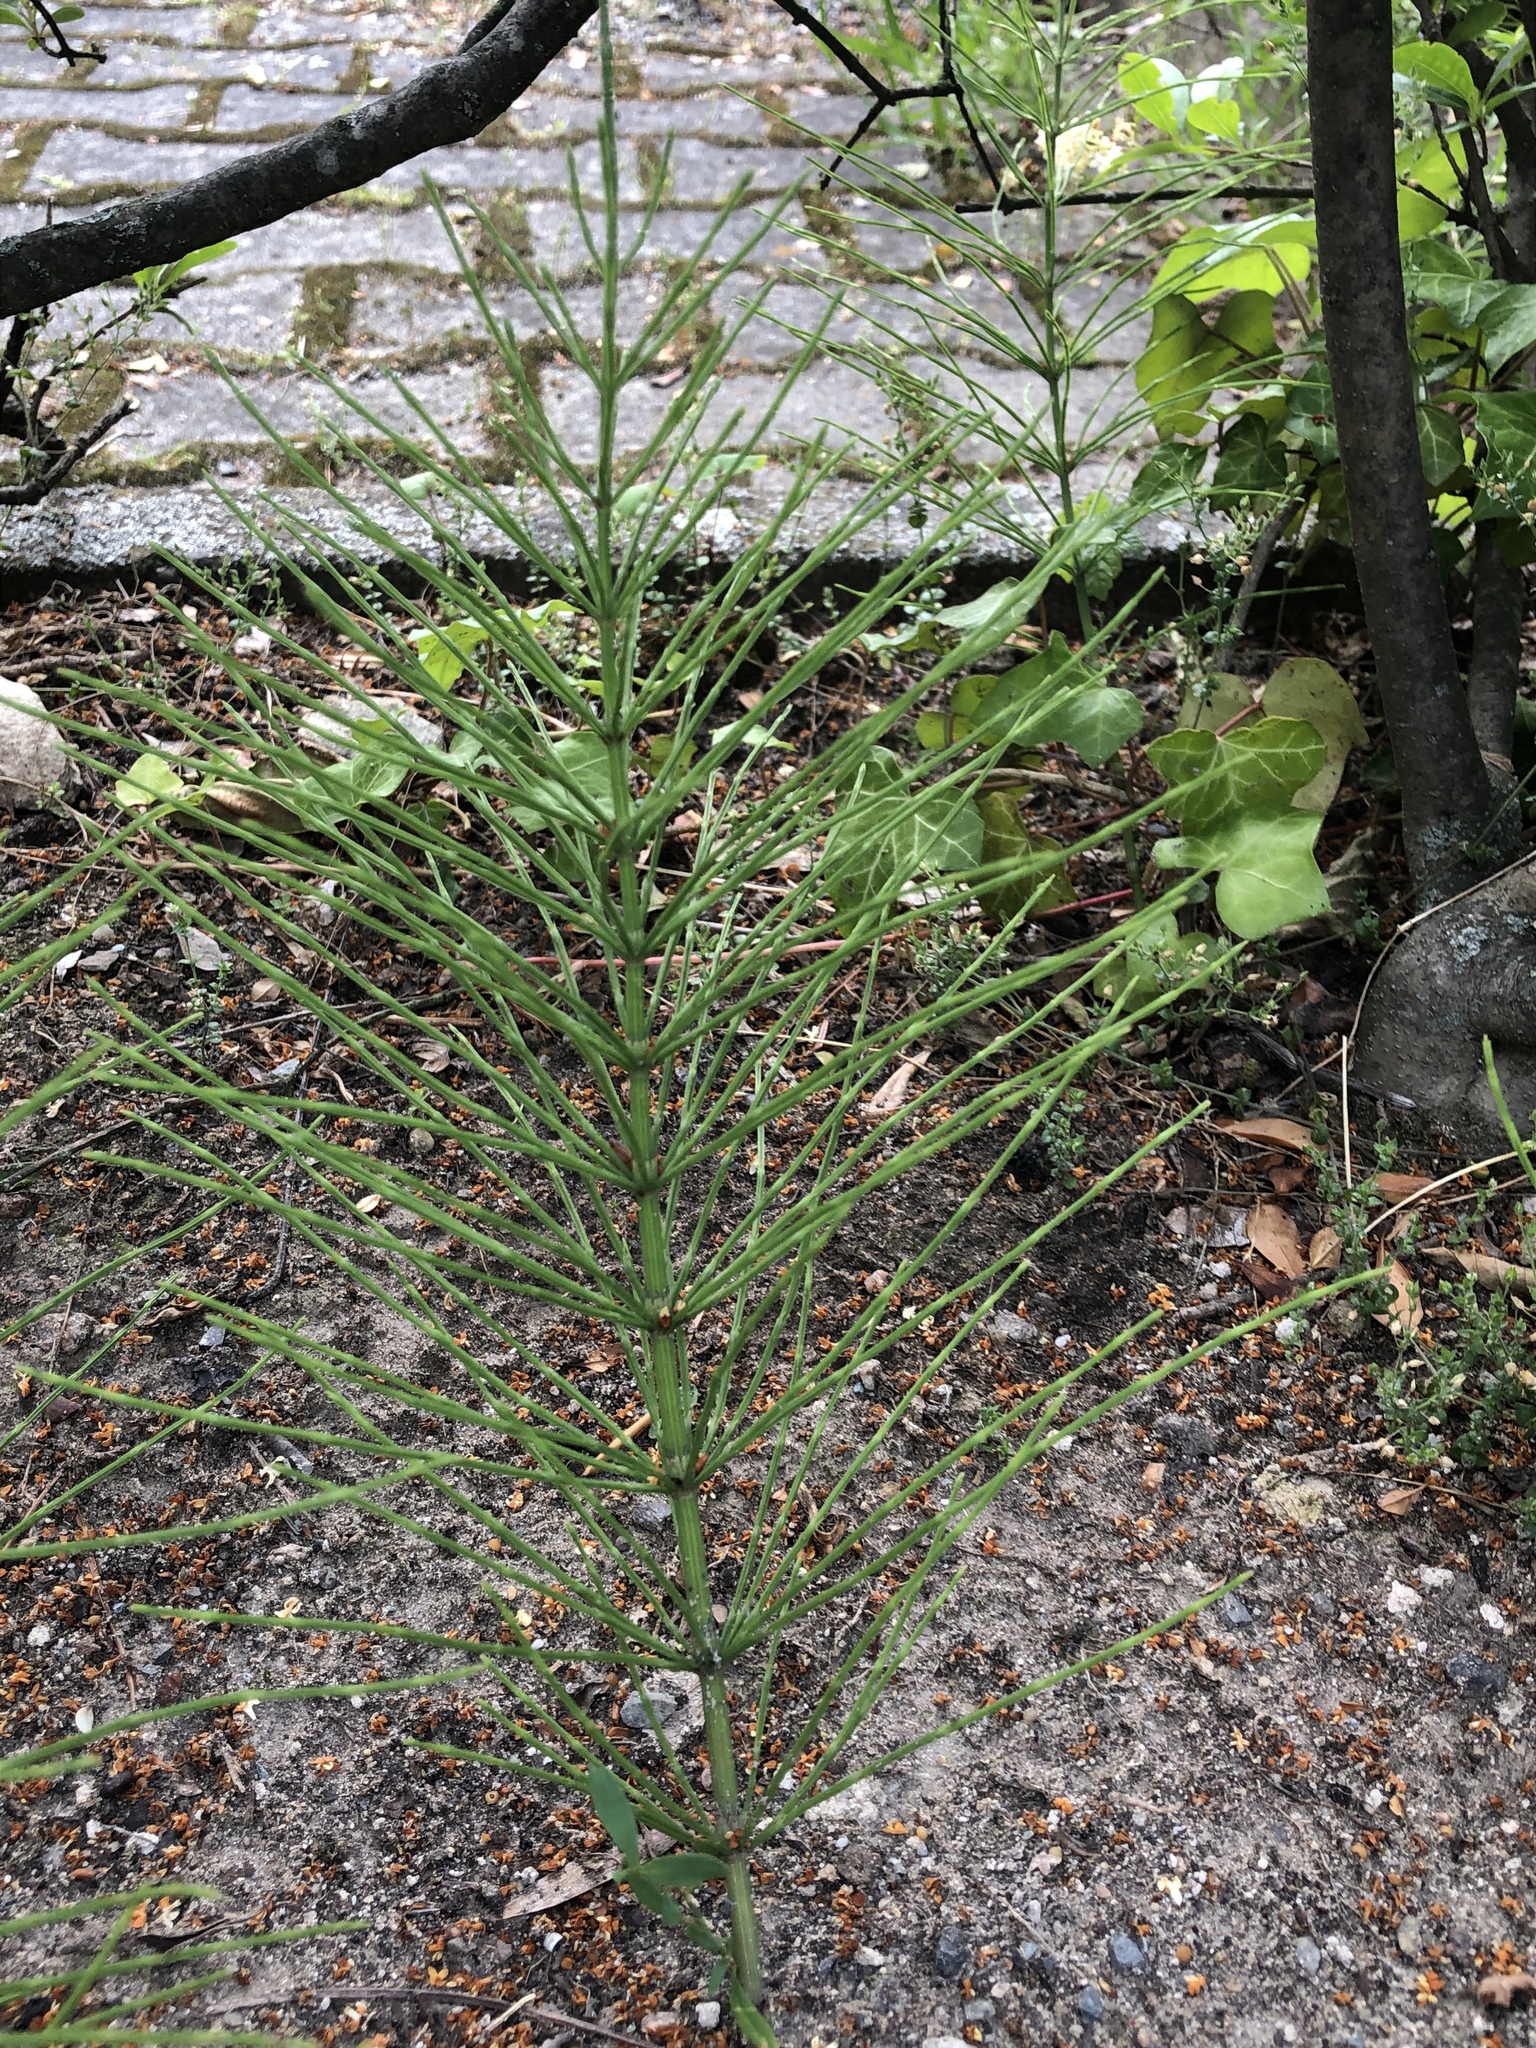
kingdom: Plantae
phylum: Tracheophyta
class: Polypodiopsida
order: Equisetales
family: Equisetaceae
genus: Equisetum
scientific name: Equisetum arvense
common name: Field horsetail
